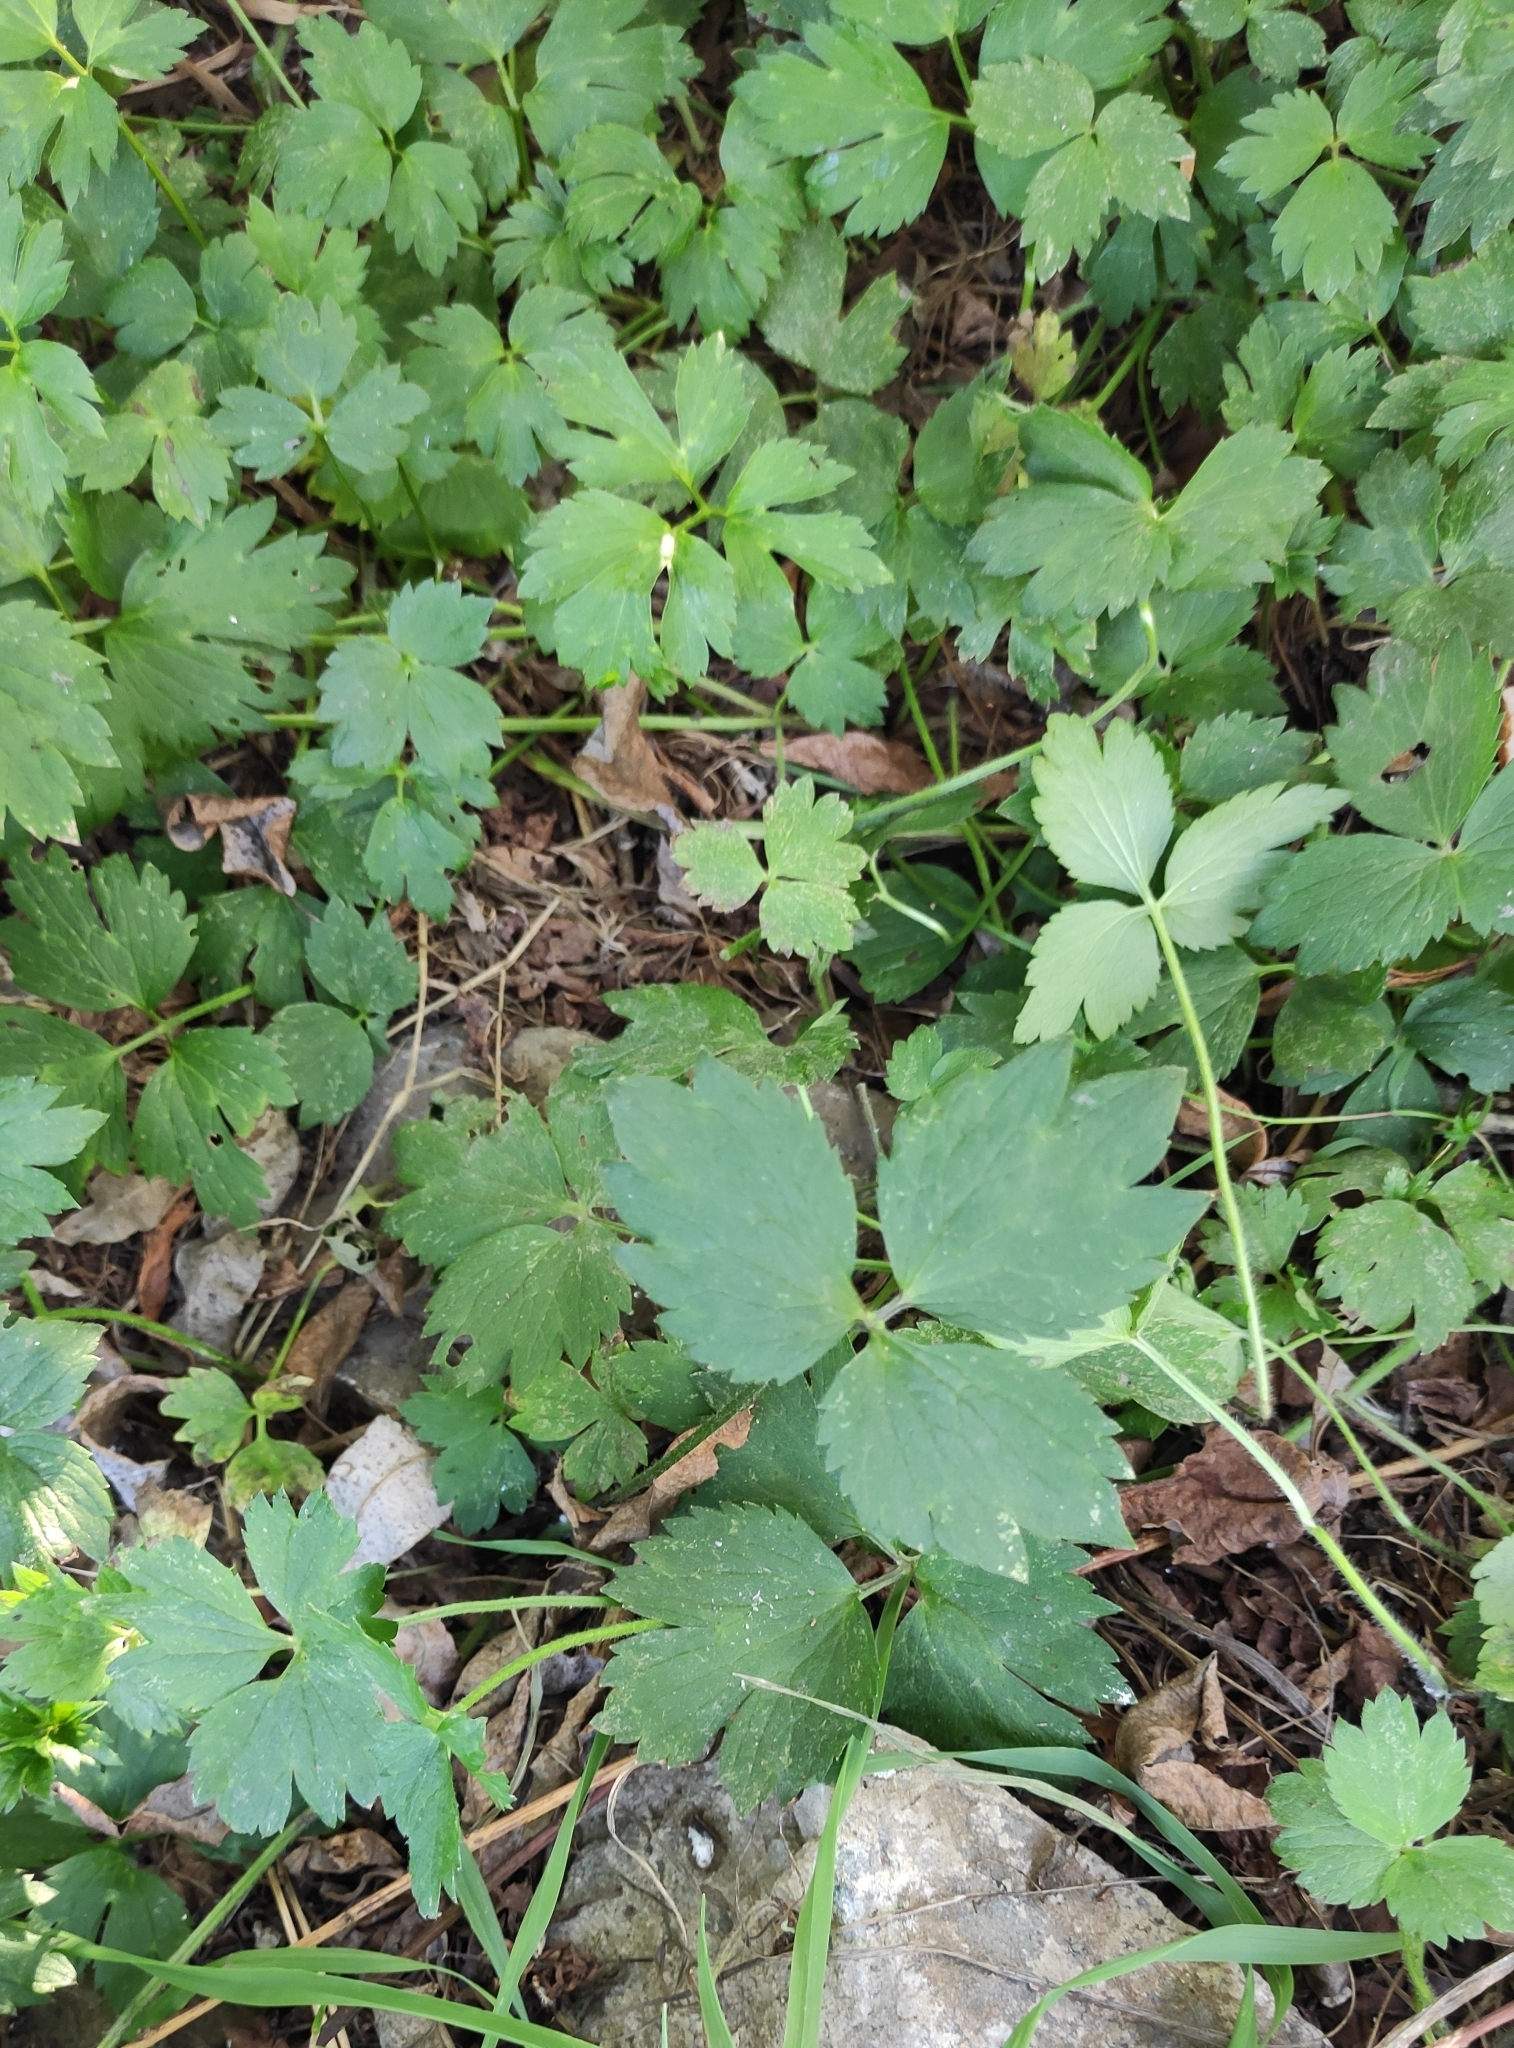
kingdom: Plantae
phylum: Tracheophyta
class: Magnoliopsida
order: Ranunculales
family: Ranunculaceae
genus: Ranunculus
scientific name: Ranunculus repens
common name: Creeping buttercup
